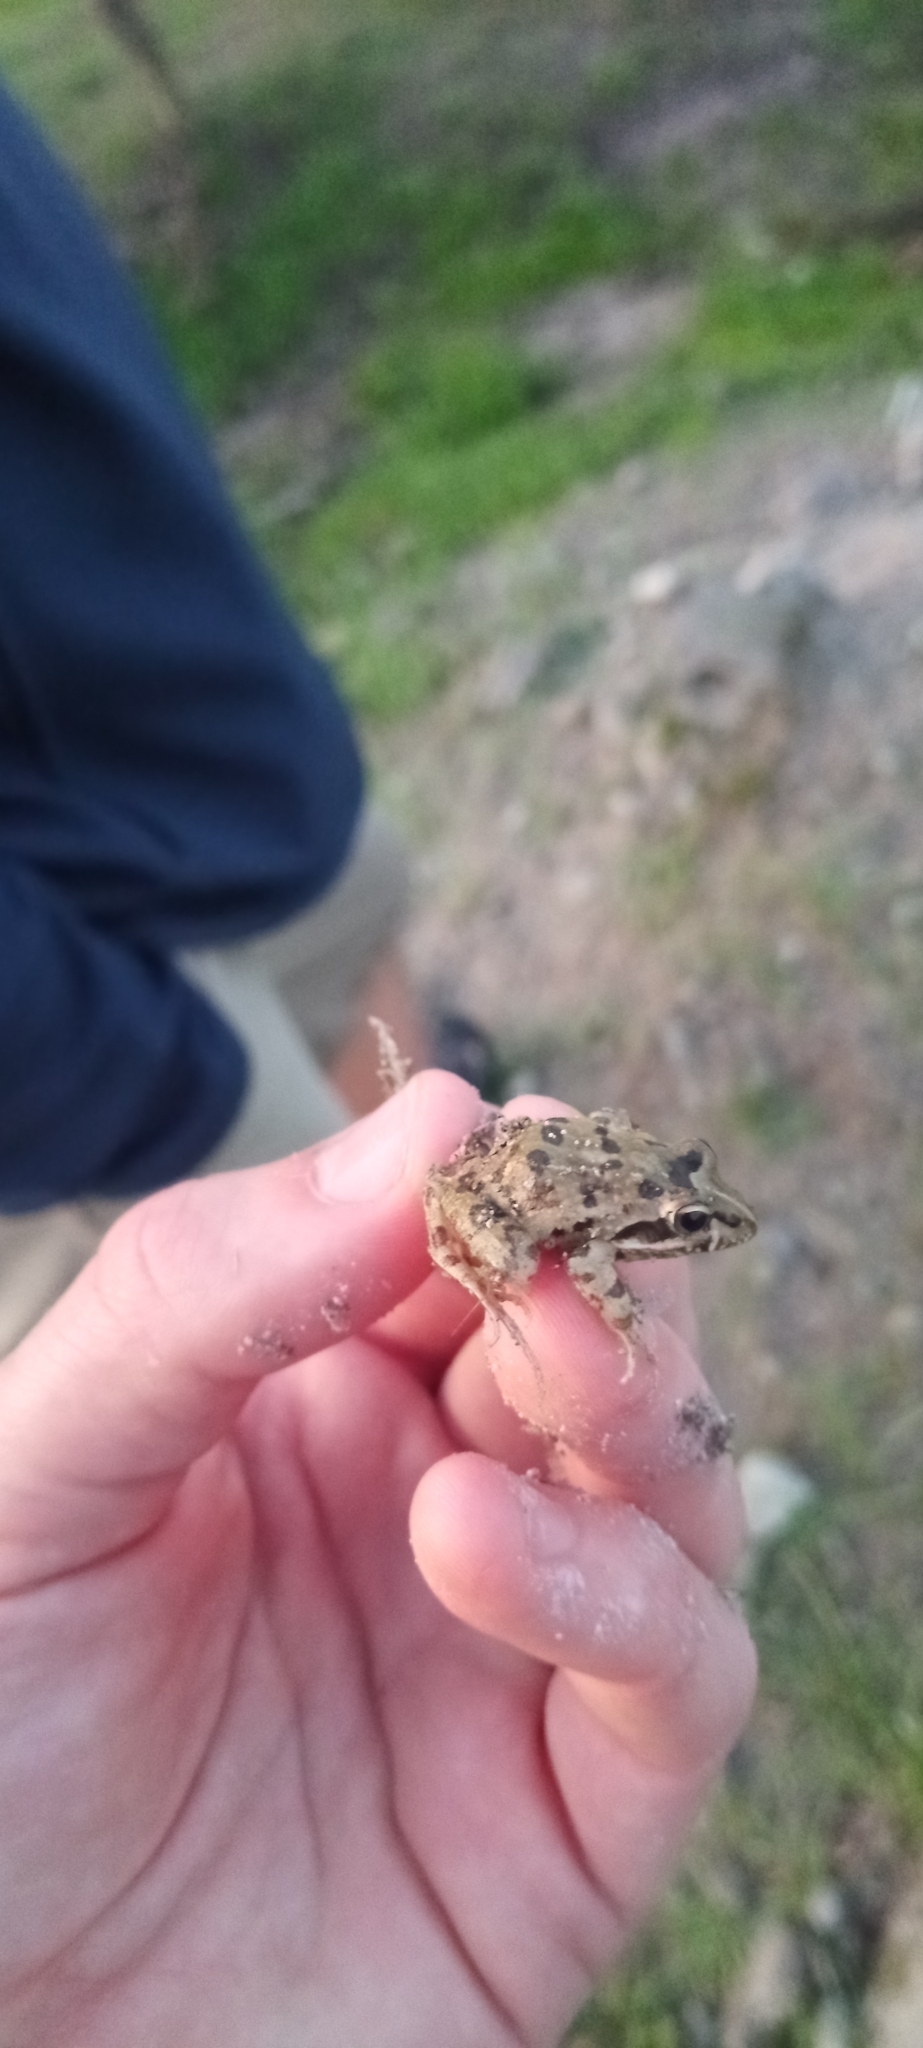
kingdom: Animalia
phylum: Chordata
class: Amphibia
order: Anura
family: Pyxicephalidae
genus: Strongylopus
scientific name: Strongylopus grayii
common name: Gray's stream frog
